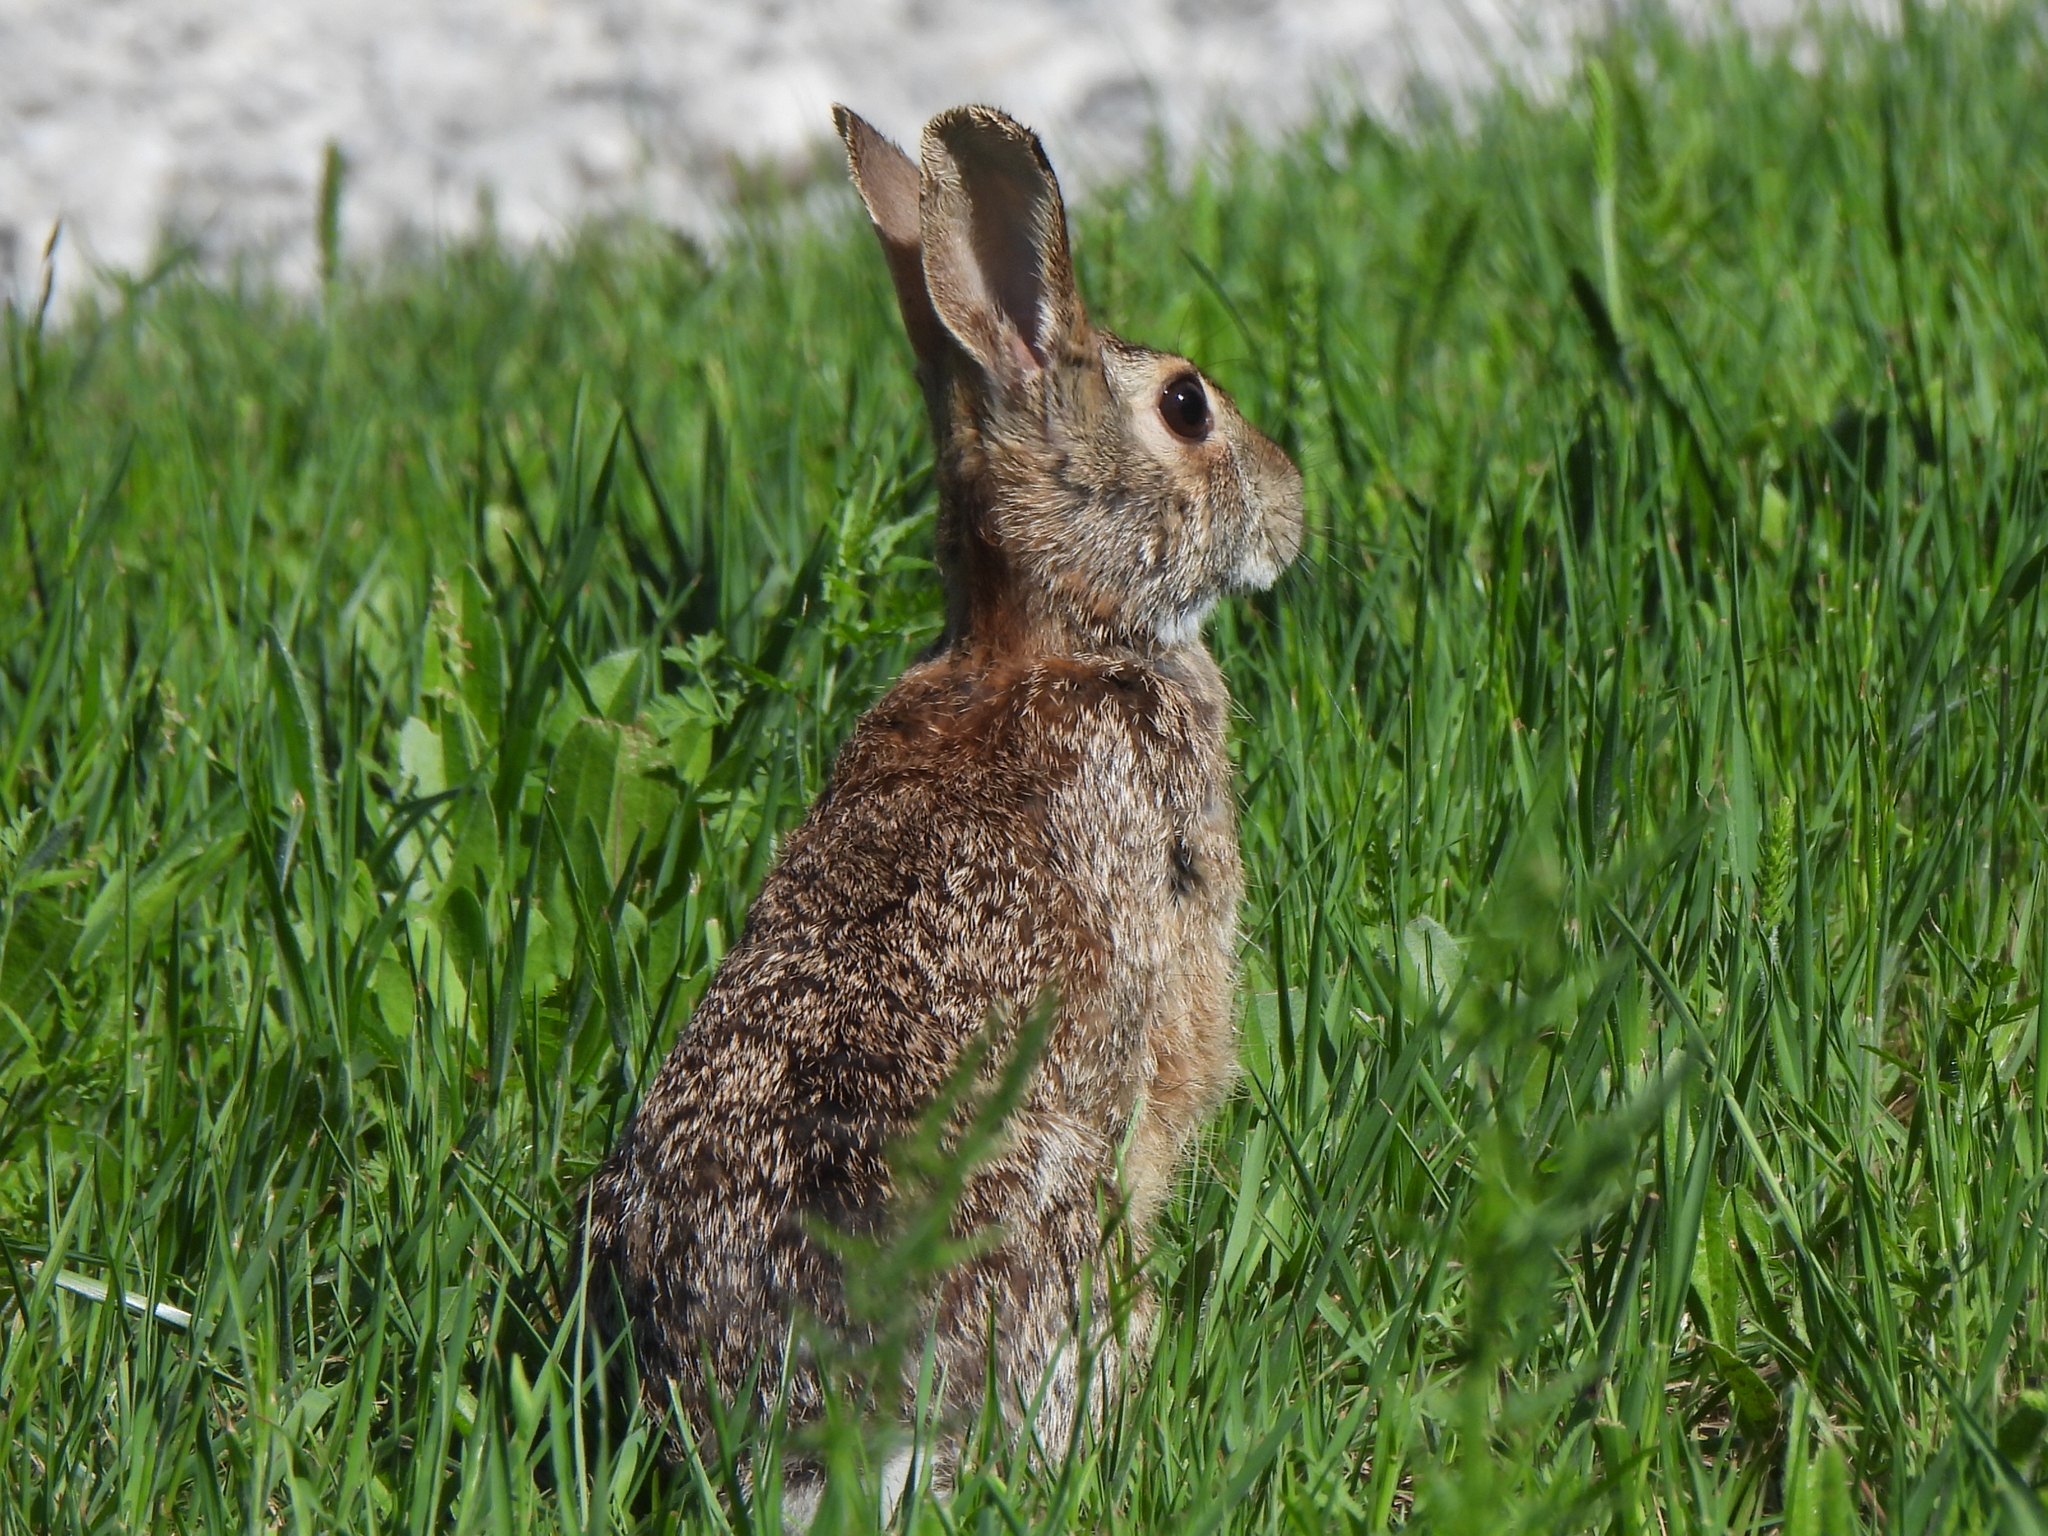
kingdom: Animalia
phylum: Chordata
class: Mammalia
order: Lagomorpha
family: Leporidae
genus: Sylvilagus
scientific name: Sylvilagus floridanus
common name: Eastern cottontail
